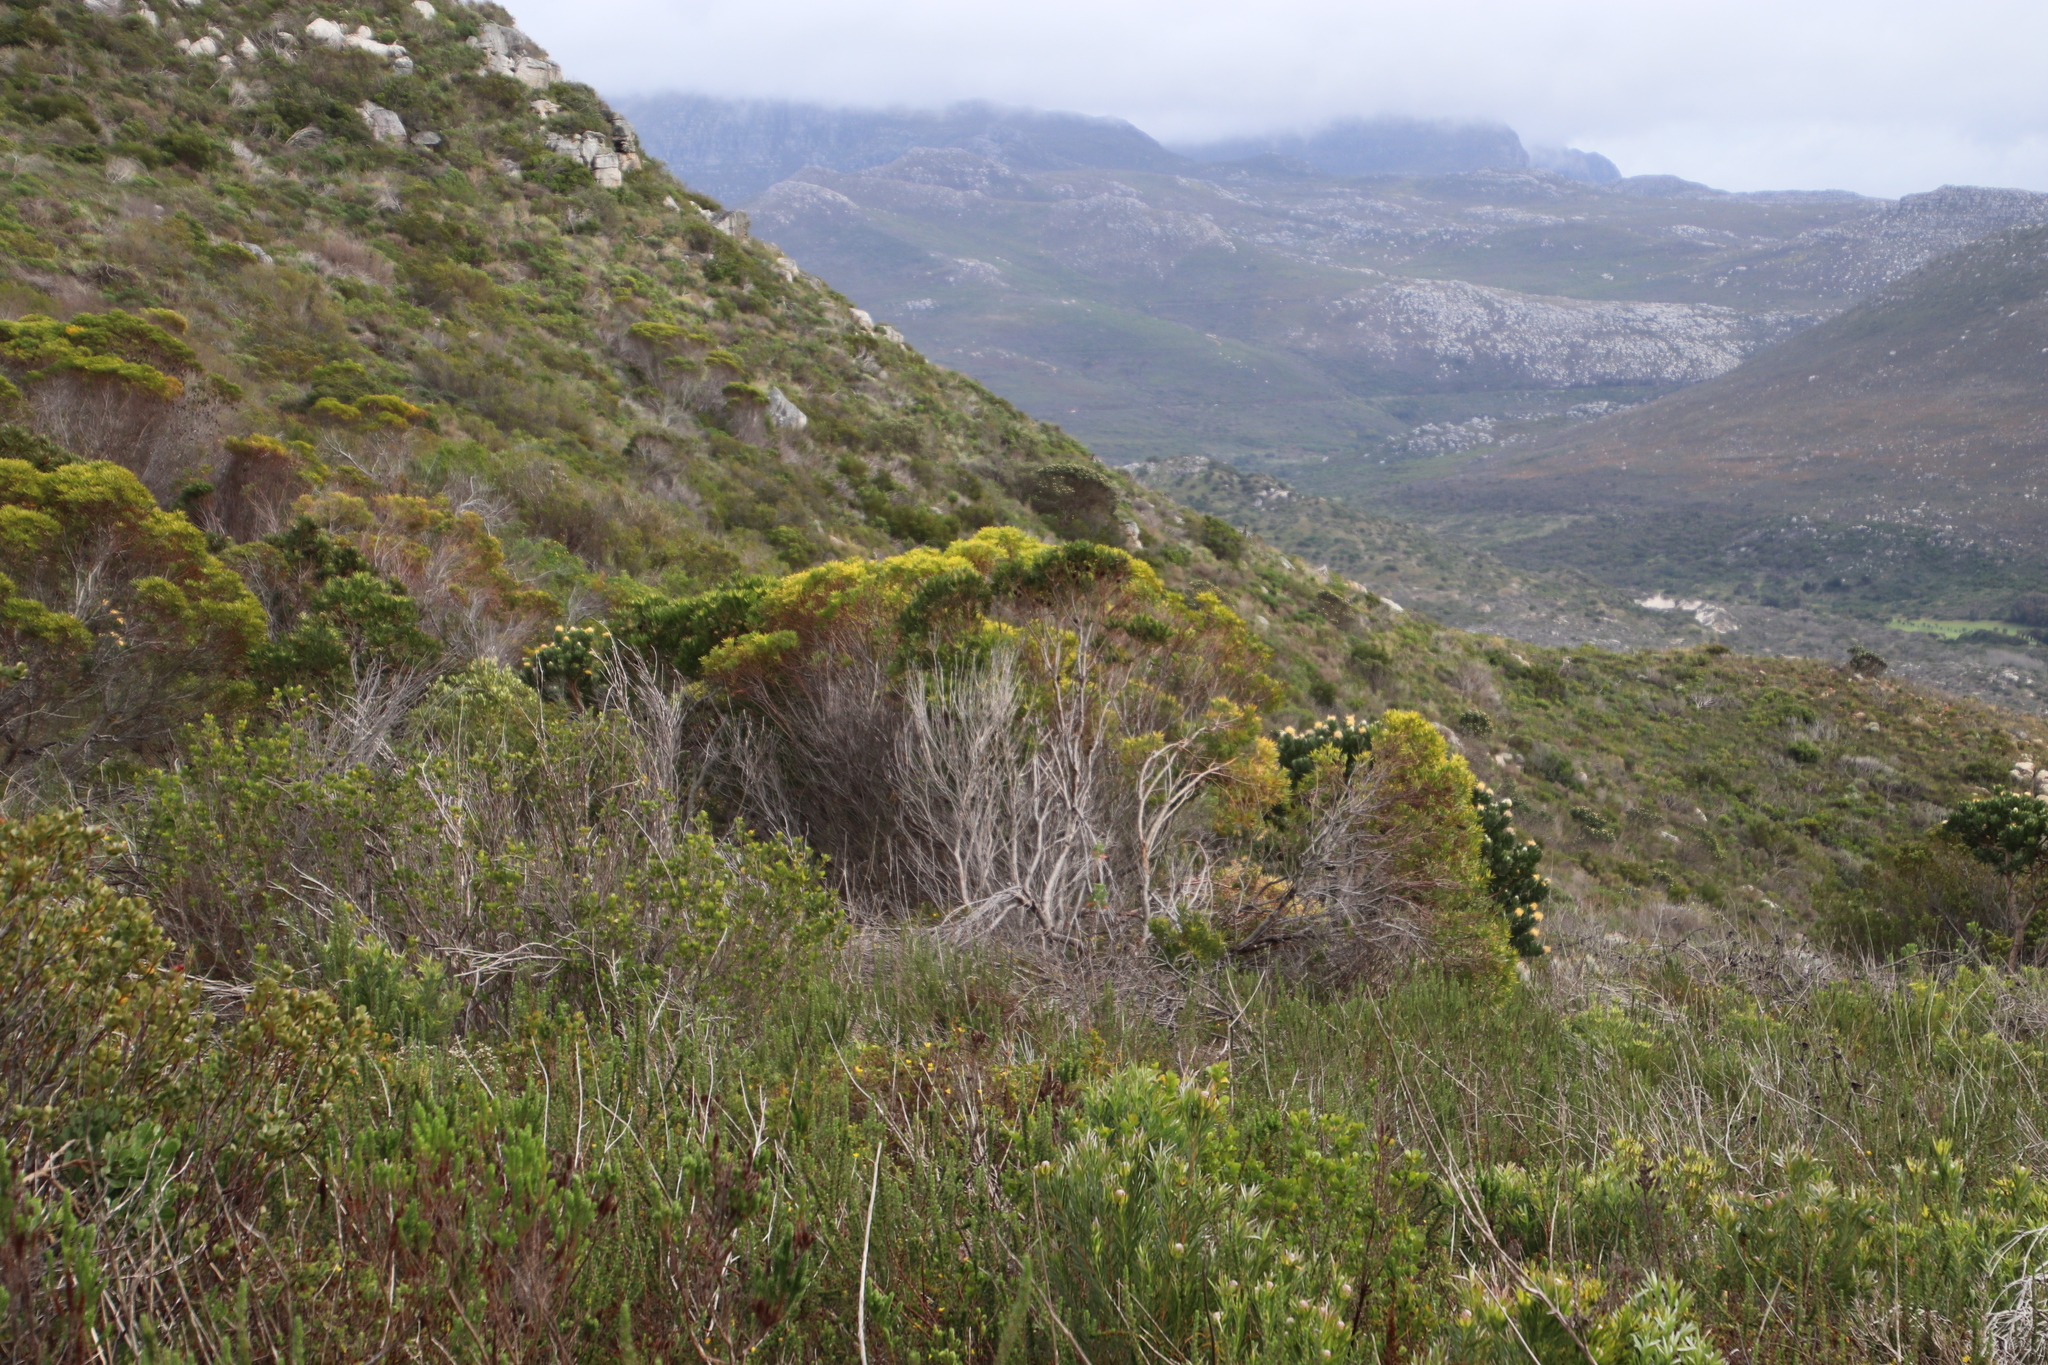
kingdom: Plantae
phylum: Tracheophyta
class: Magnoliopsida
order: Proteales
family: Proteaceae
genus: Leucadendron
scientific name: Leucadendron coniferum
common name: Dune conebush
